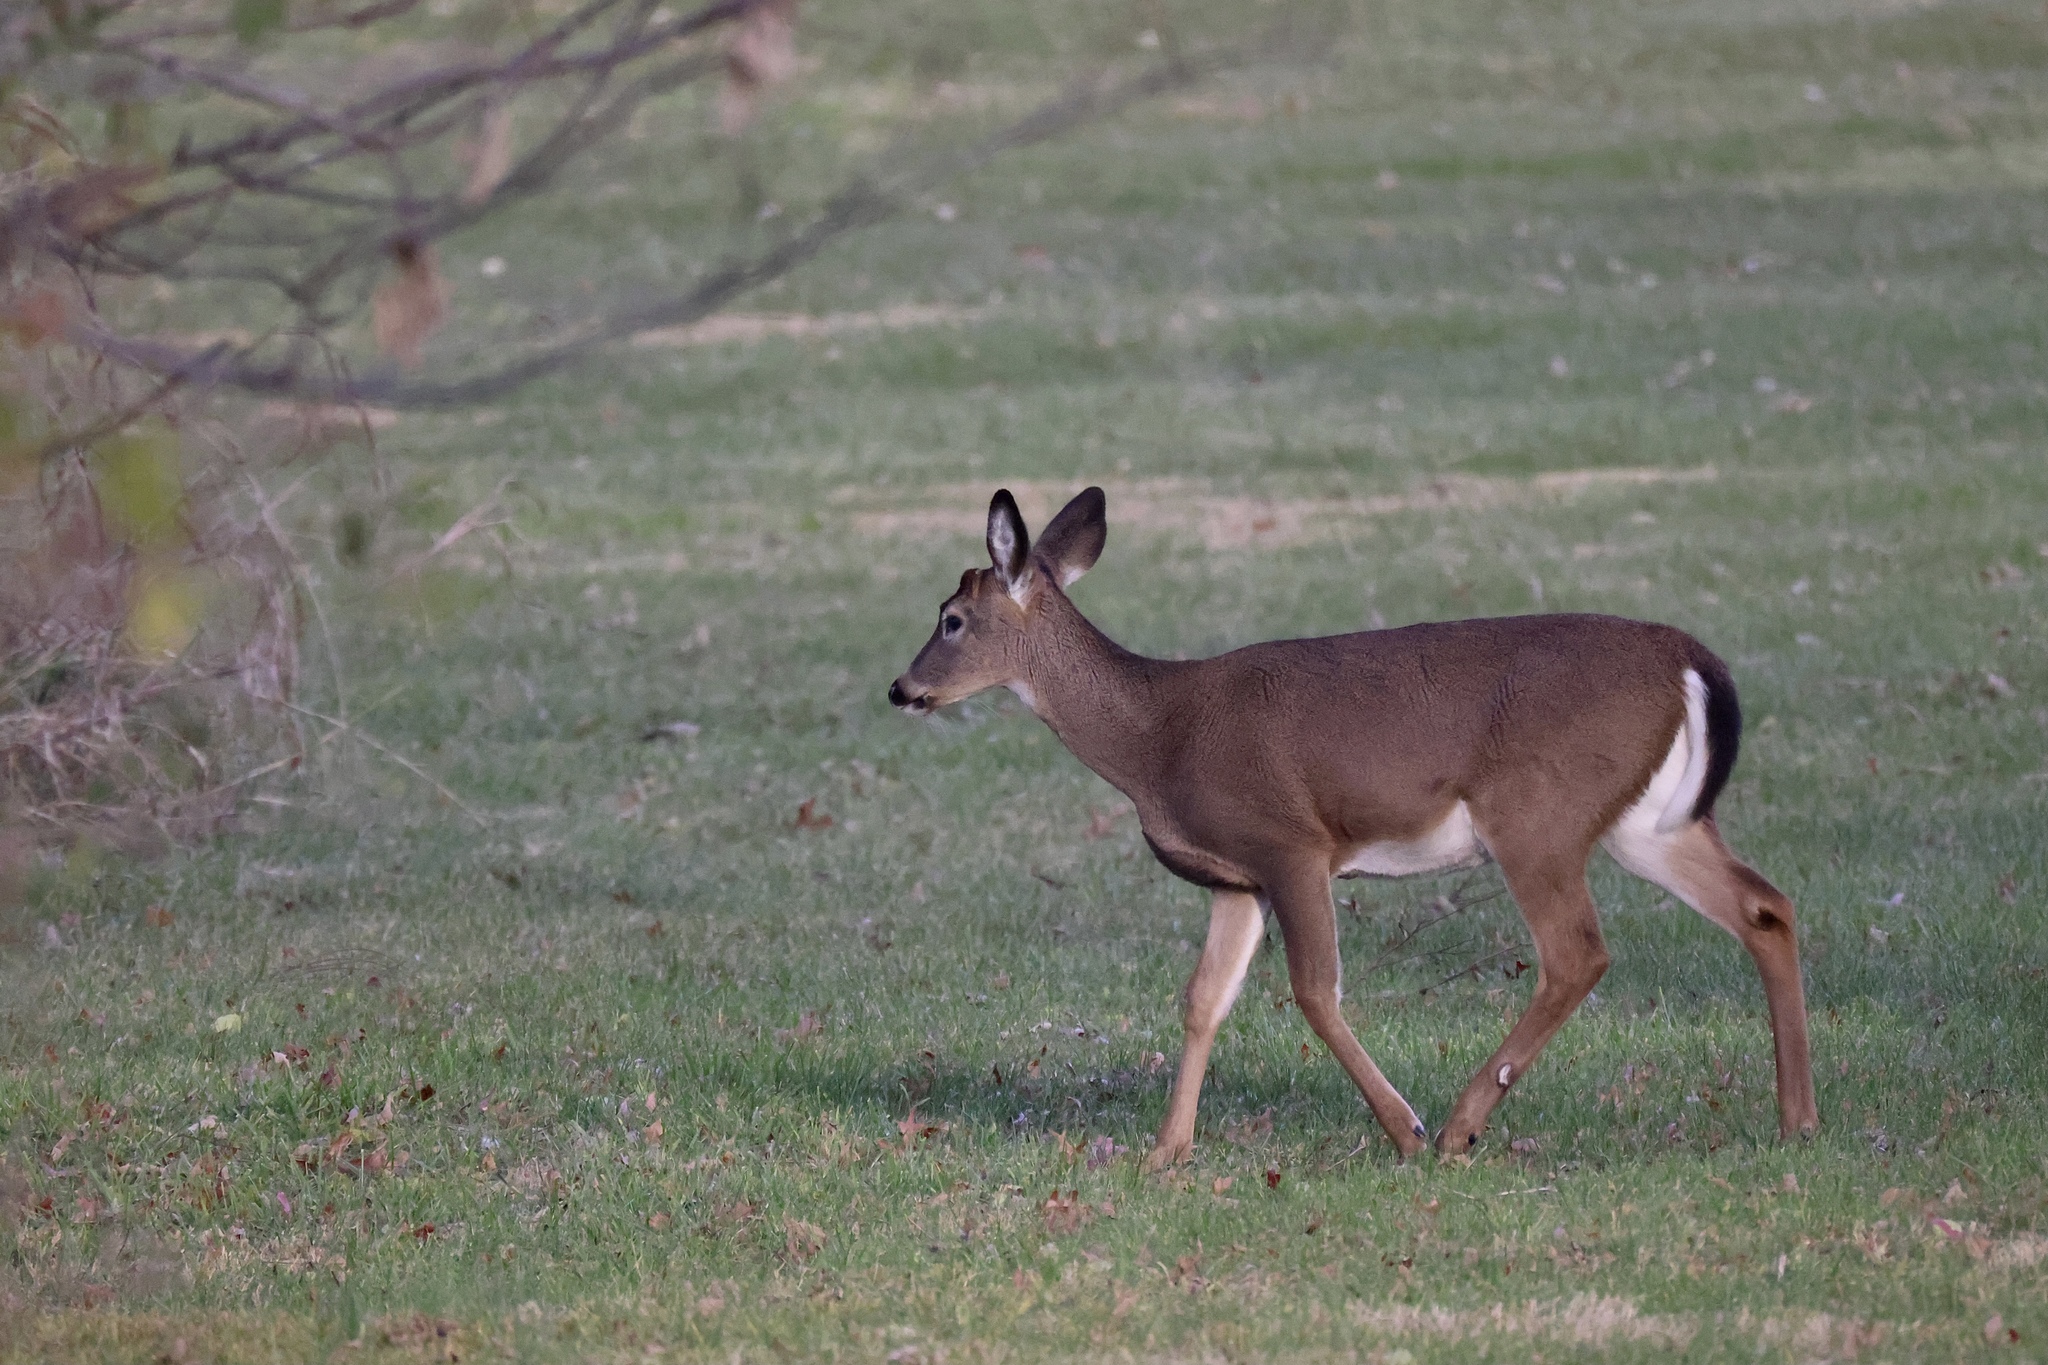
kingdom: Animalia
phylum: Chordata
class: Mammalia
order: Artiodactyla
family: Cervidae
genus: Odocoileus
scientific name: Odocoileus virginianus
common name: White-tailed deer
